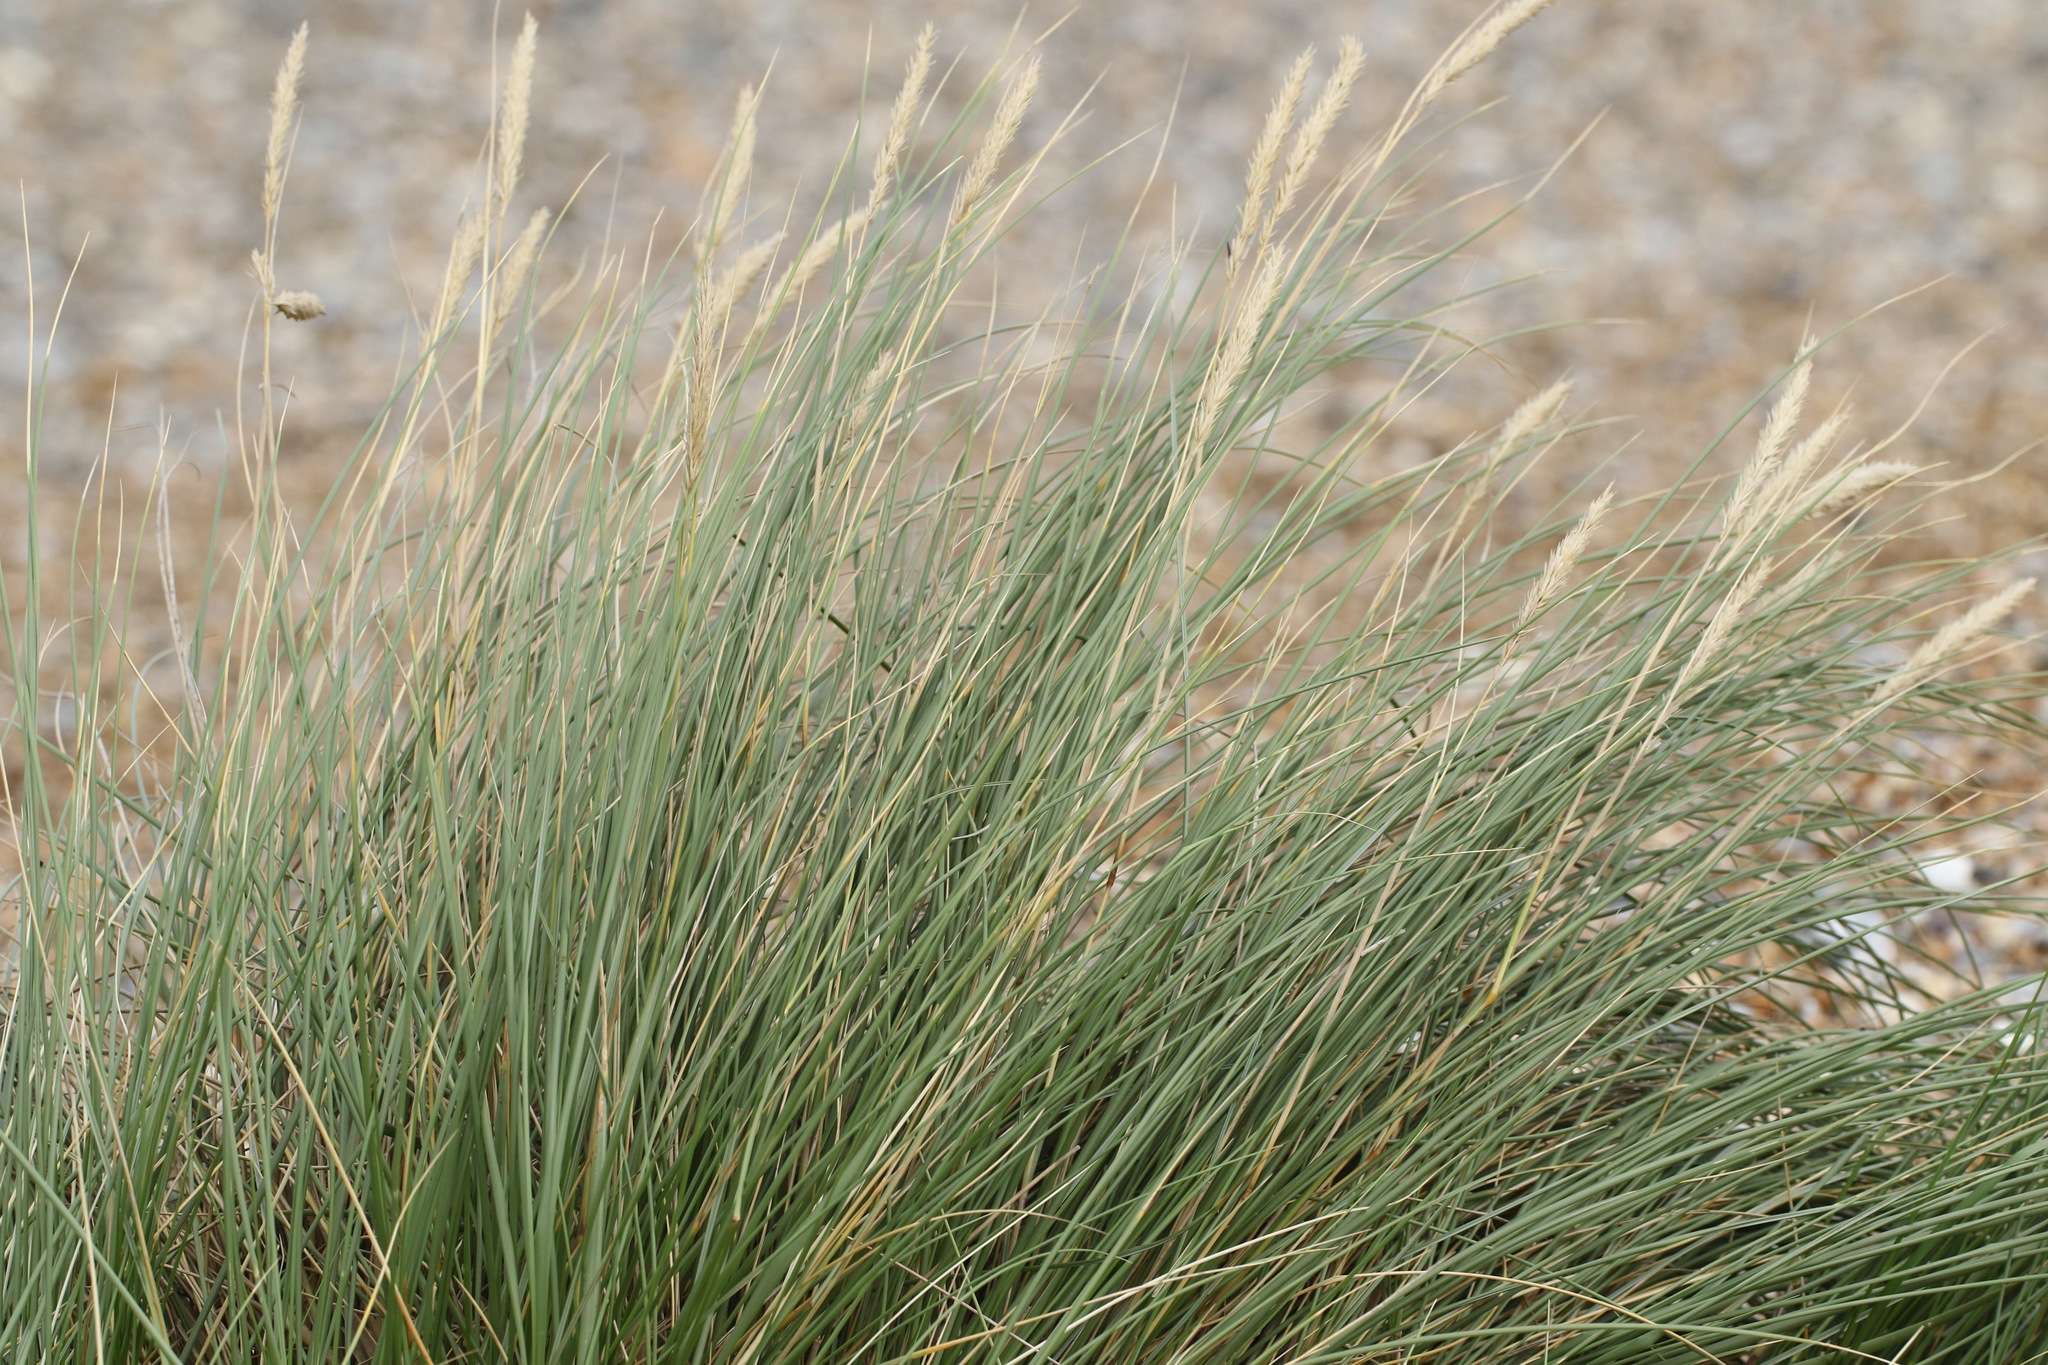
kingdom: Plantae
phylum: Tracheophyta
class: Liliopsida
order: Poales
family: Poaceae
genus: Calamagrostis
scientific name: Calamagrostis arenaria
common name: European beachgrass
